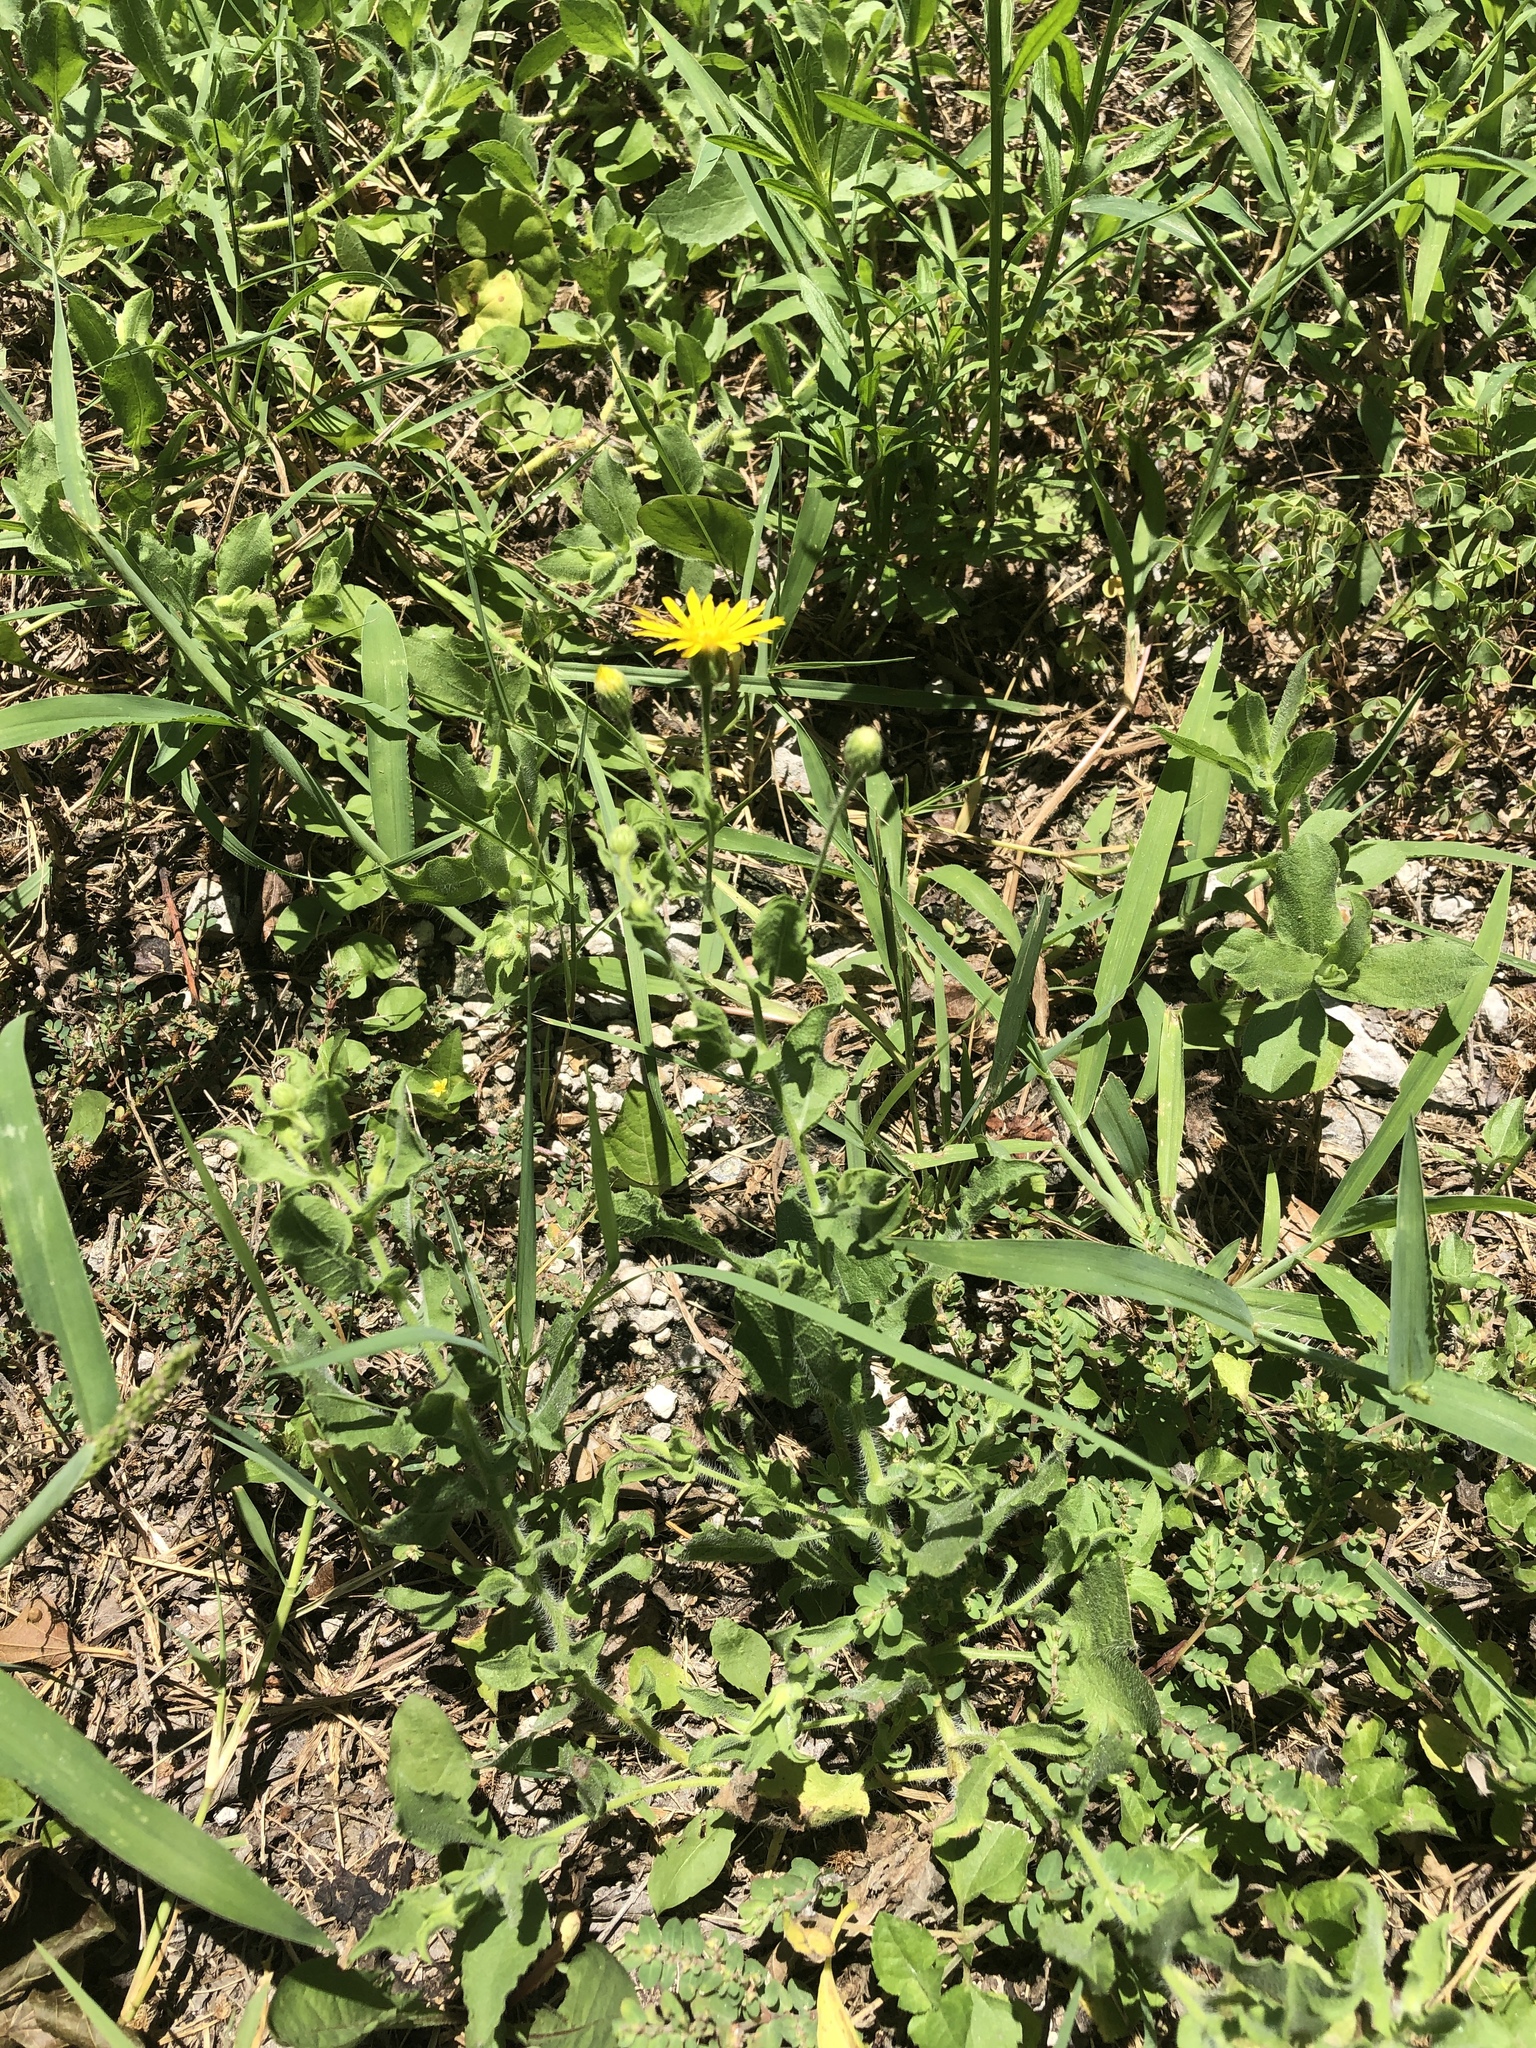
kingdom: Plantae
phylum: Tracheophyta
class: Magnoliopsida
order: Asterales
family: Asteraceae
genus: Heterotheca
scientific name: Heterotheca subaxillaris
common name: Camphorweed
